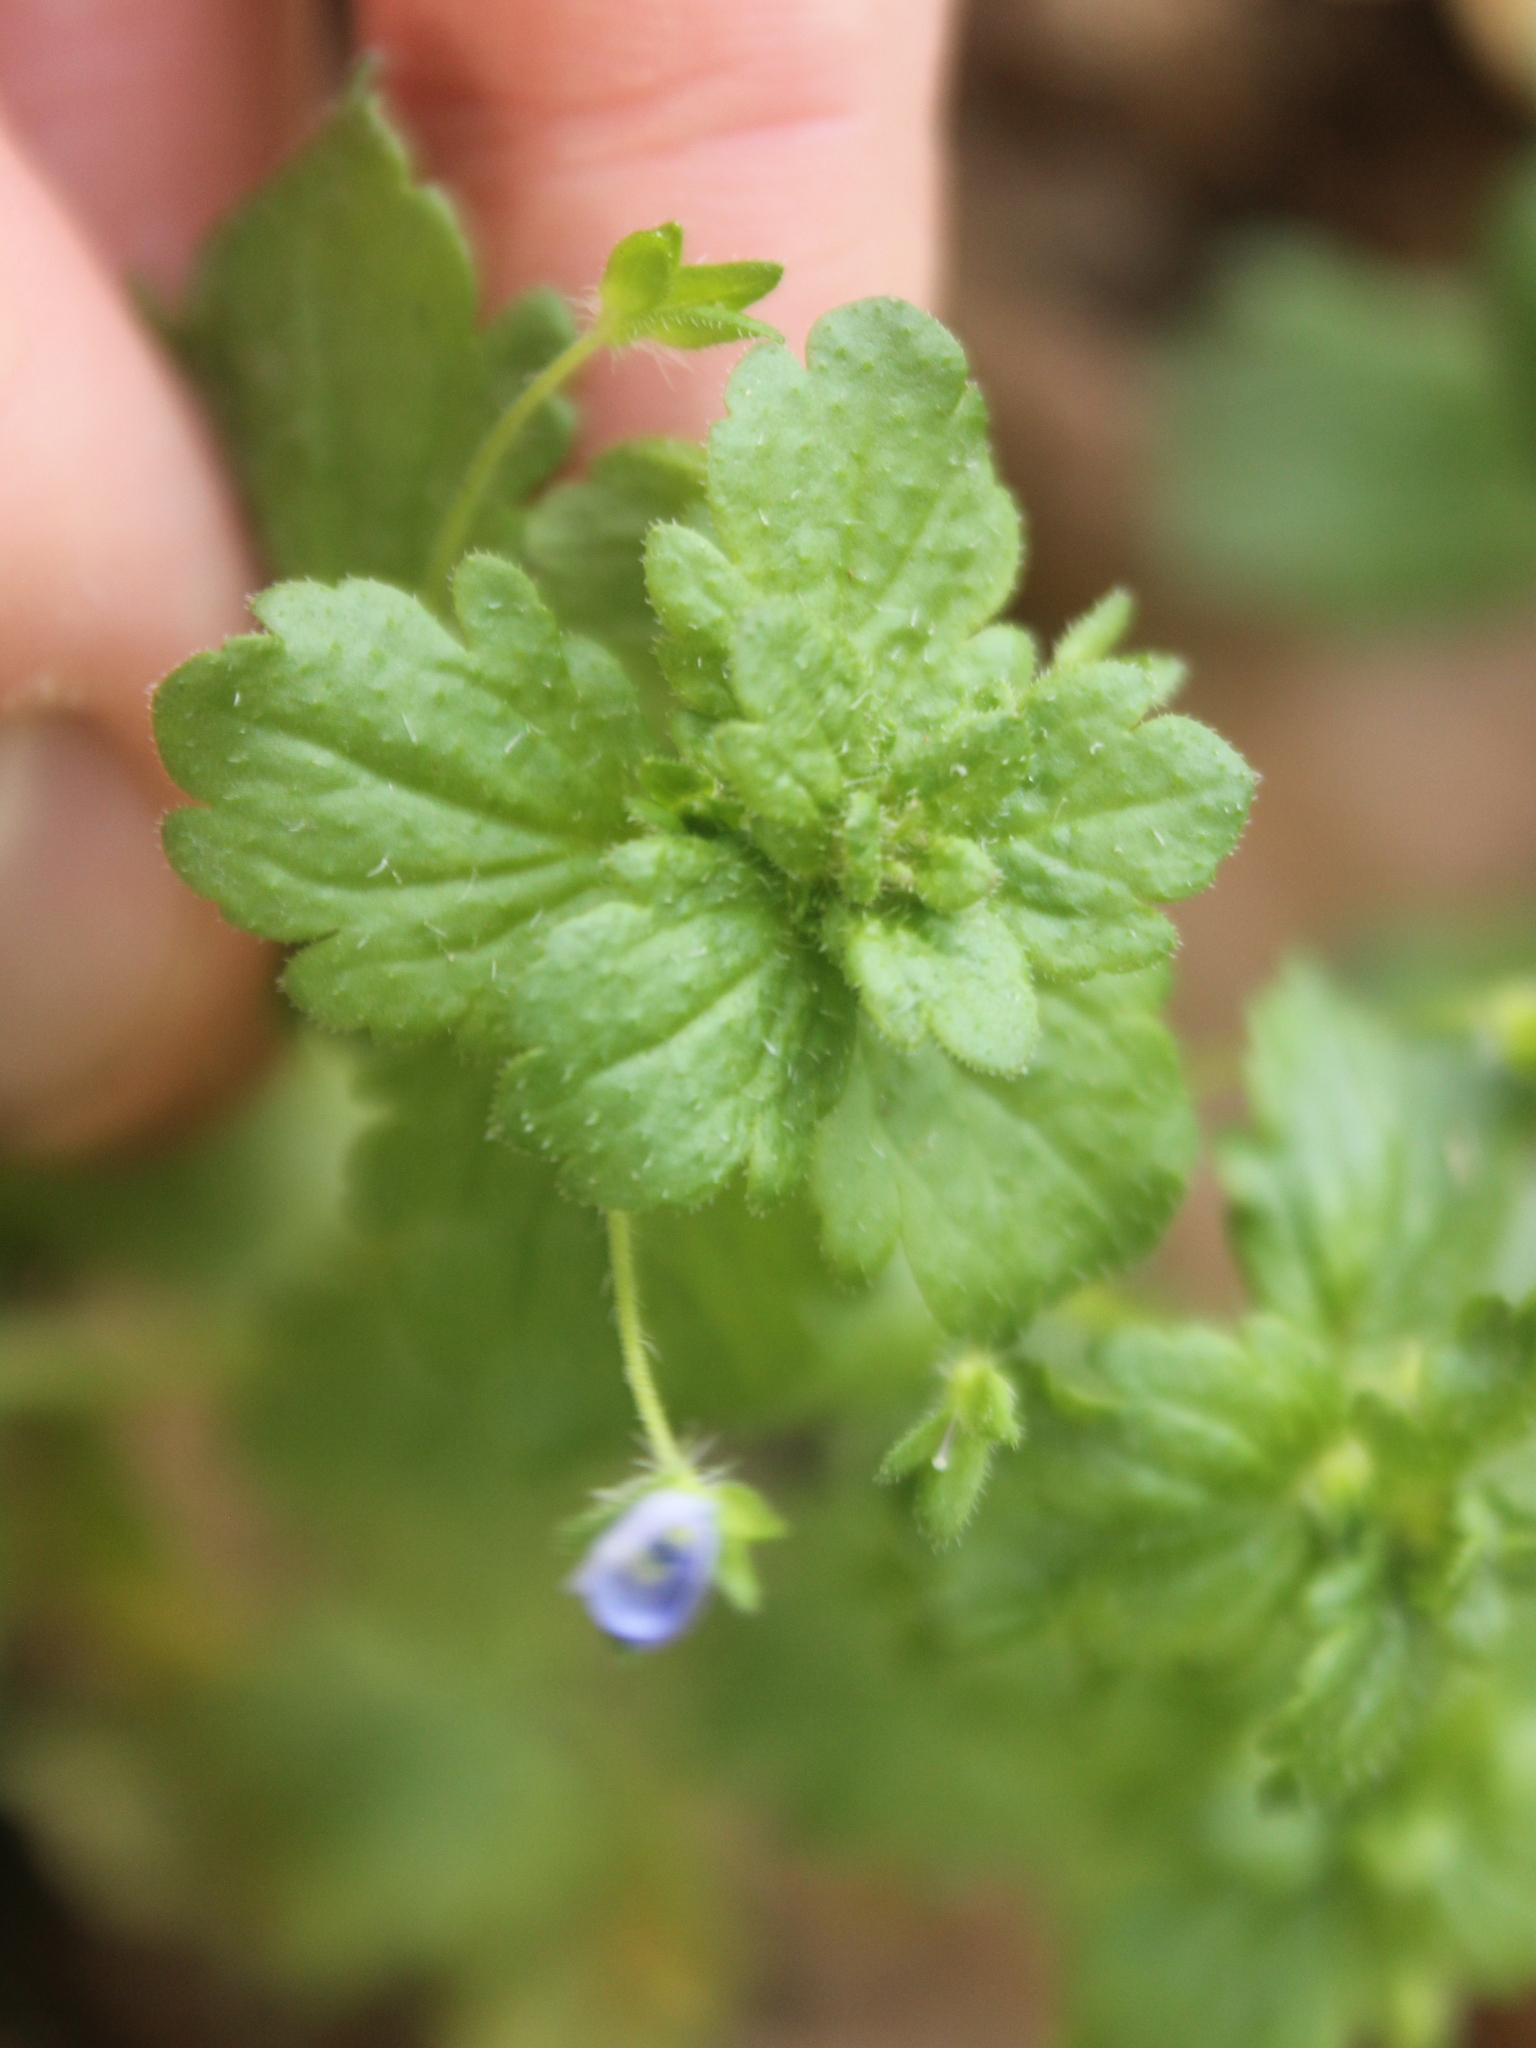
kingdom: Plantae
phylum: Tracheophyta
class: Magnoliopsida
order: Lamiales
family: Plantaginaceae
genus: Veronica
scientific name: Veronica persica
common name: Common field-speedwell
